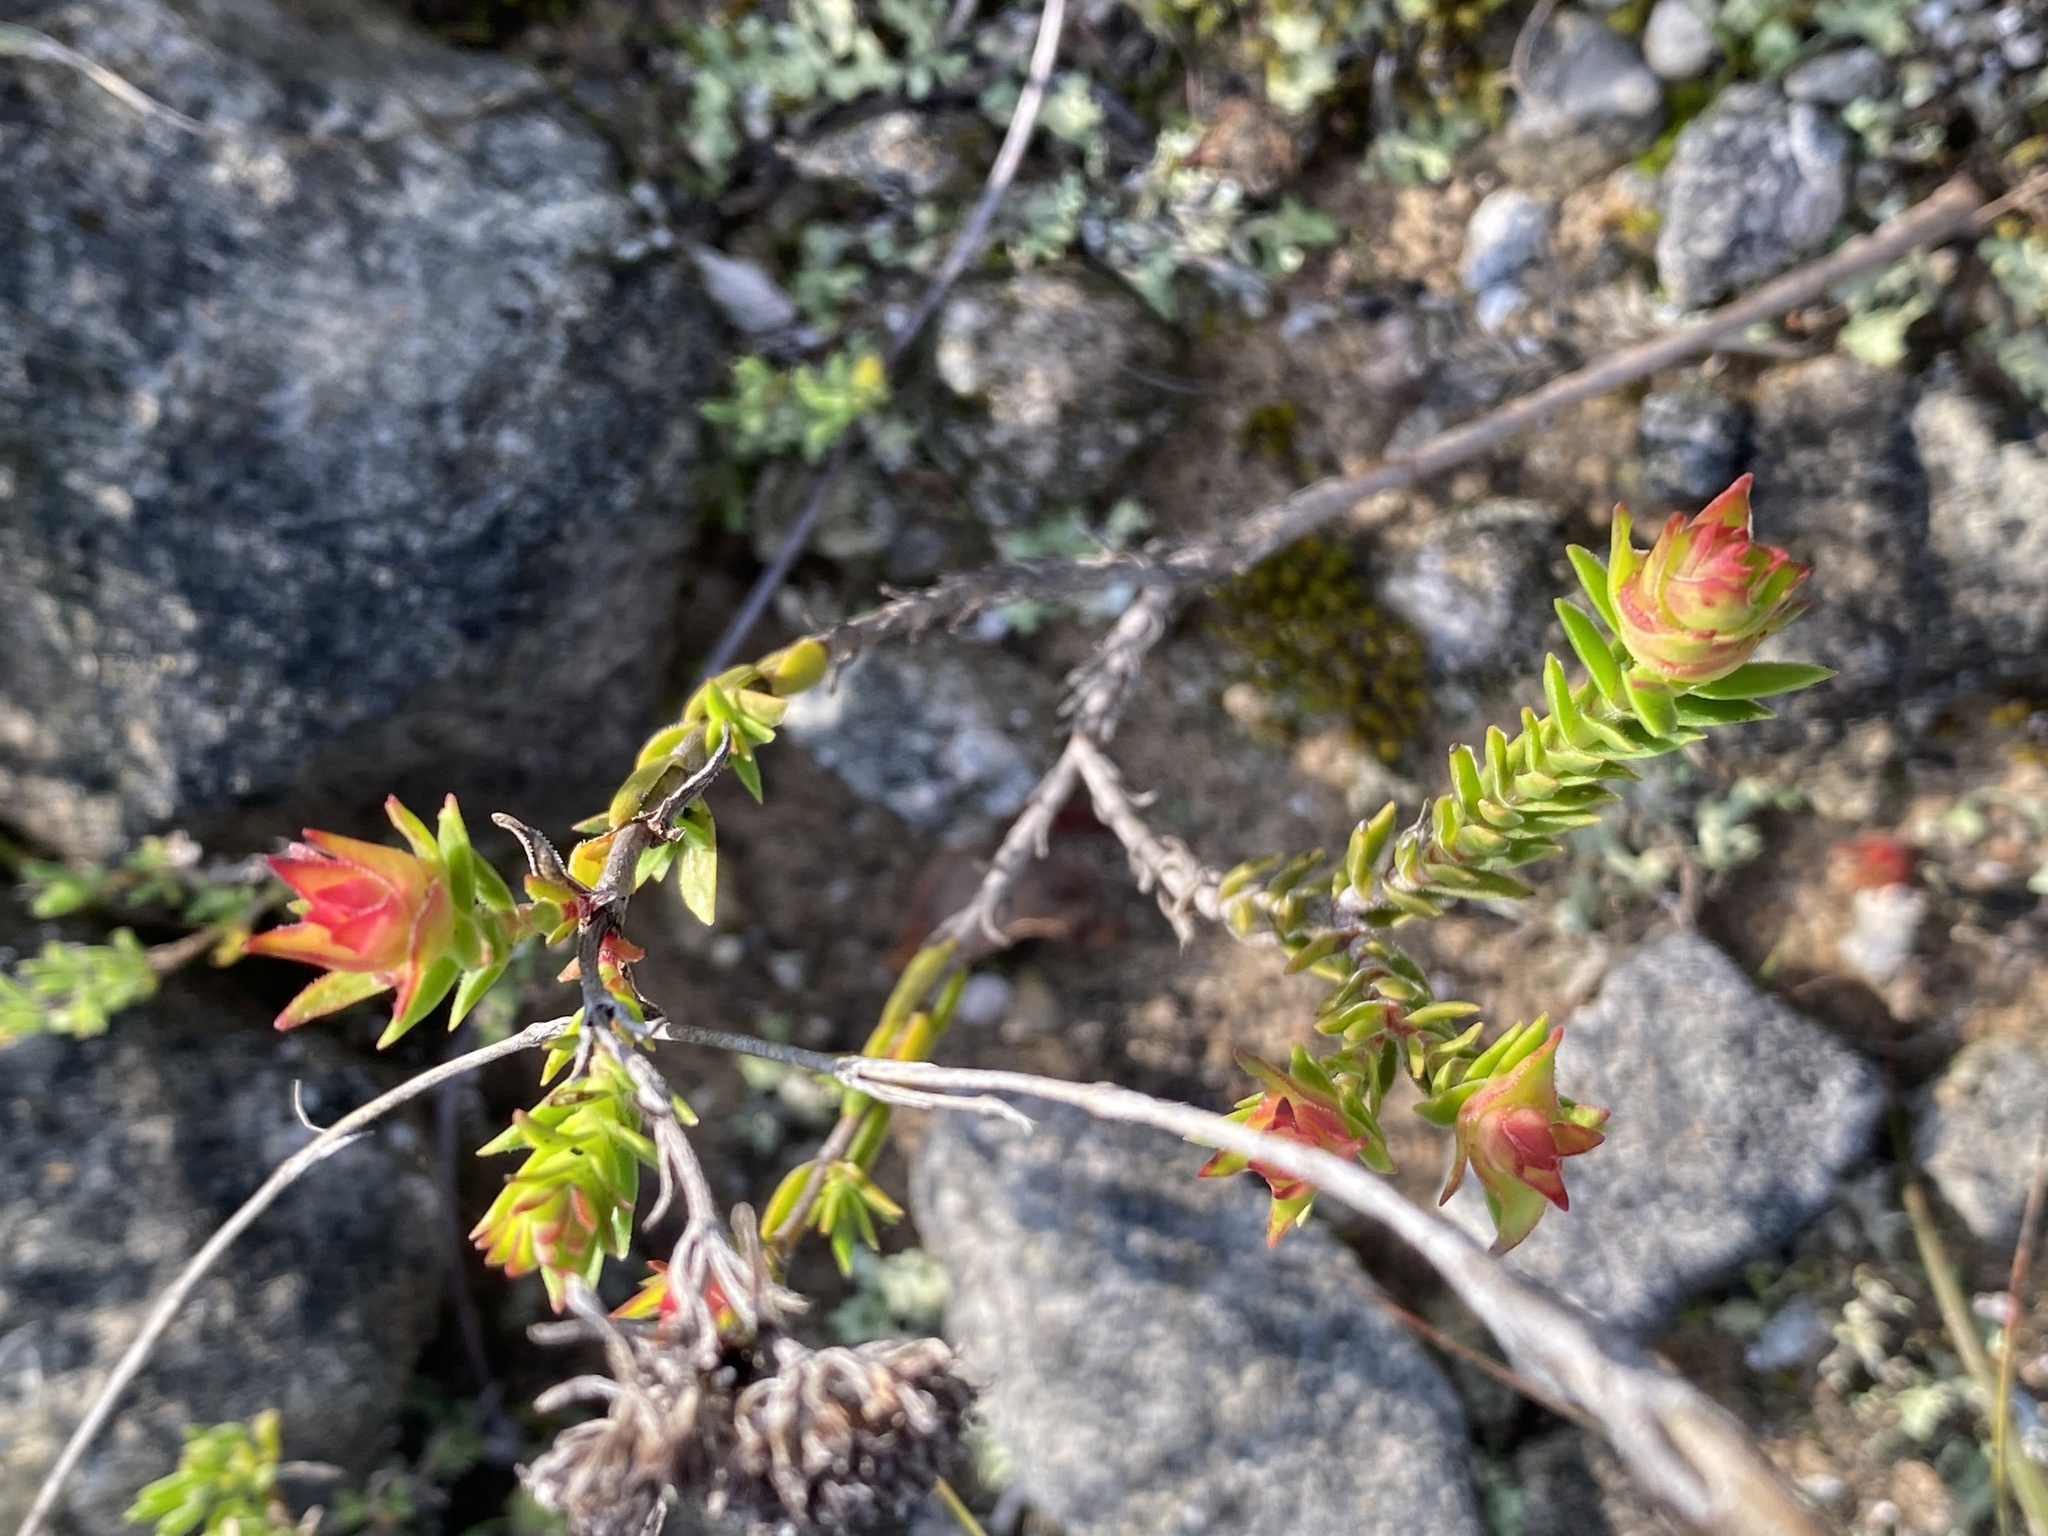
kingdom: Plantae
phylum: Tracheophyta
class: Magnoliopsida
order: Saxifragales
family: Crassulaceae
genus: Crassula
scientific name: Crassula subulata
